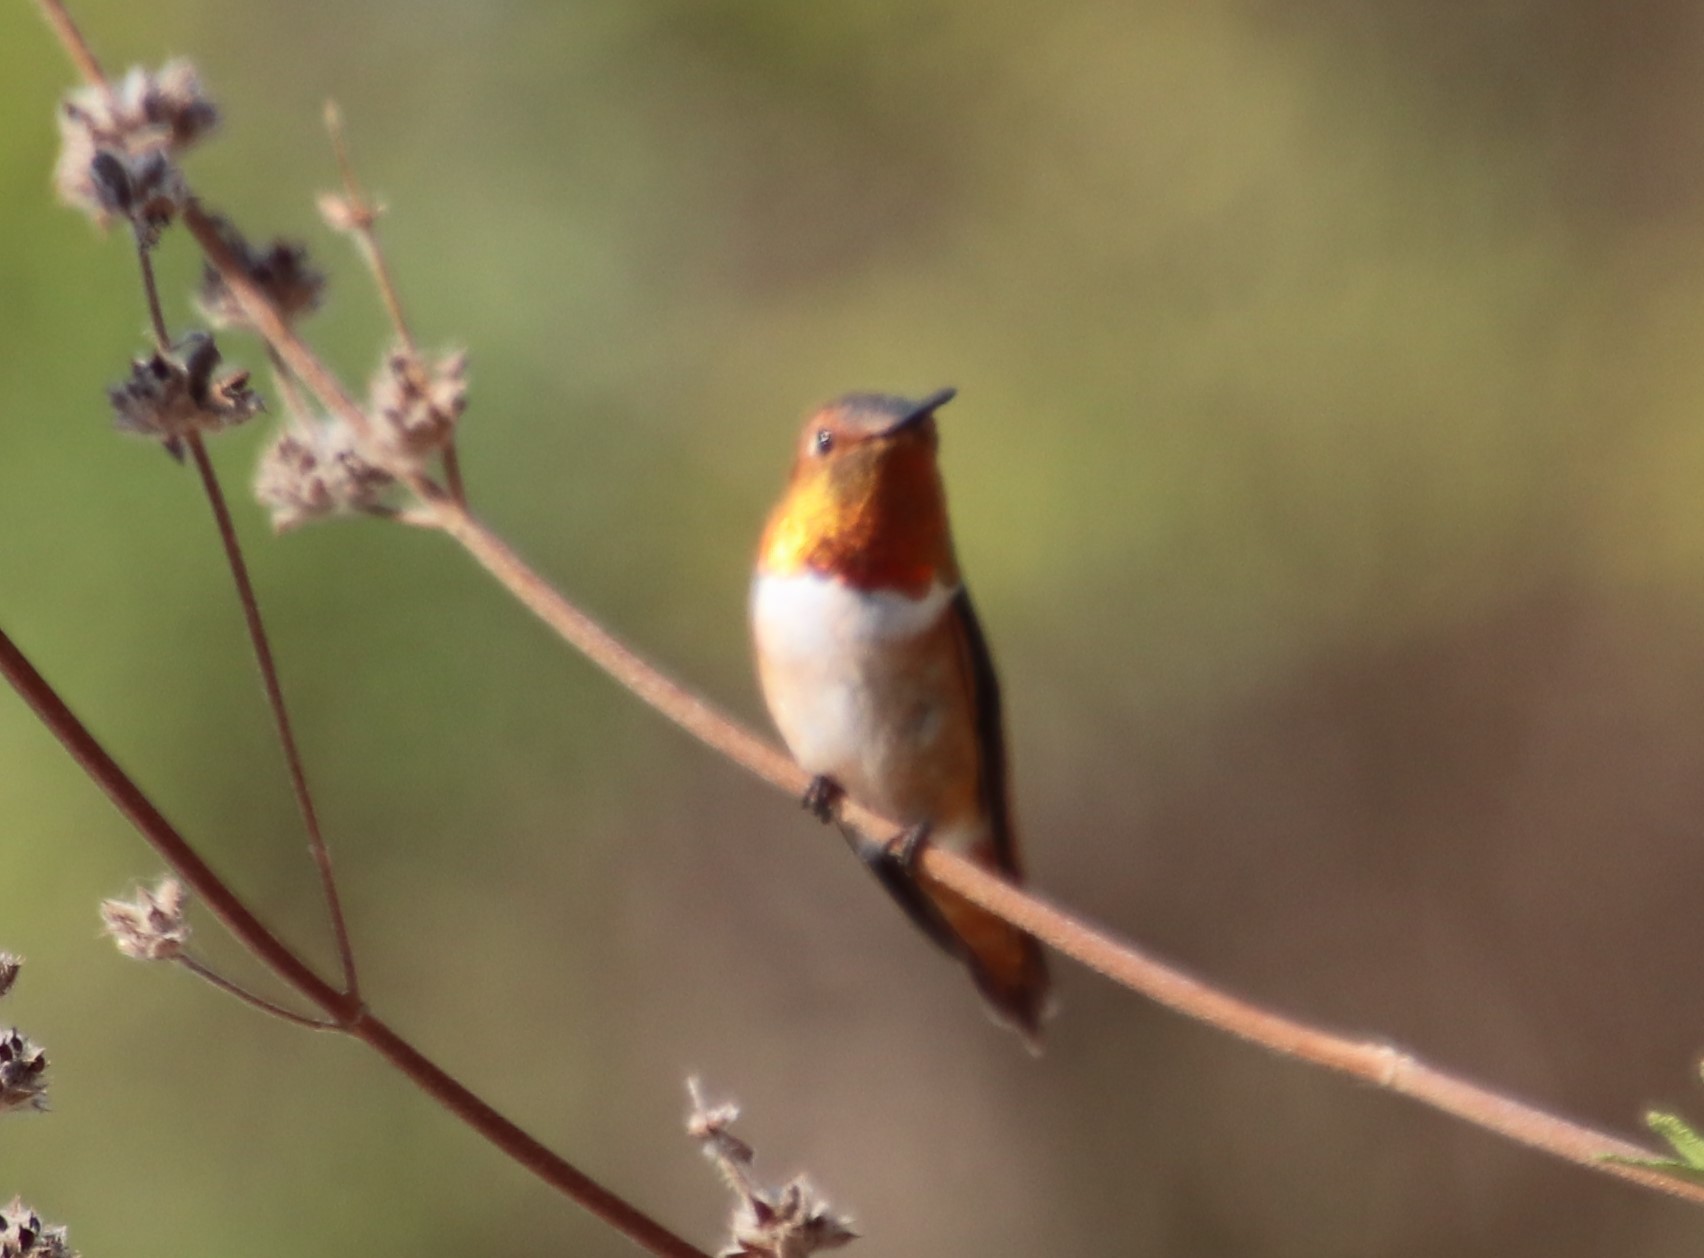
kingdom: Animalia
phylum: Chordata
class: Aves
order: Apodiformes
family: Trochilidae
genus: Selasphorus
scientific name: Selasphorus rufus
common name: Rufous hummingbird
